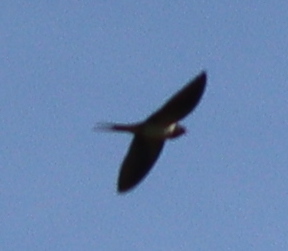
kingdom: Animalia
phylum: Chordata
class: Aves
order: Passeriformes
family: Hirundinidae
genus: Hirundo
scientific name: Hirundo rustica
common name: Barn swallow
